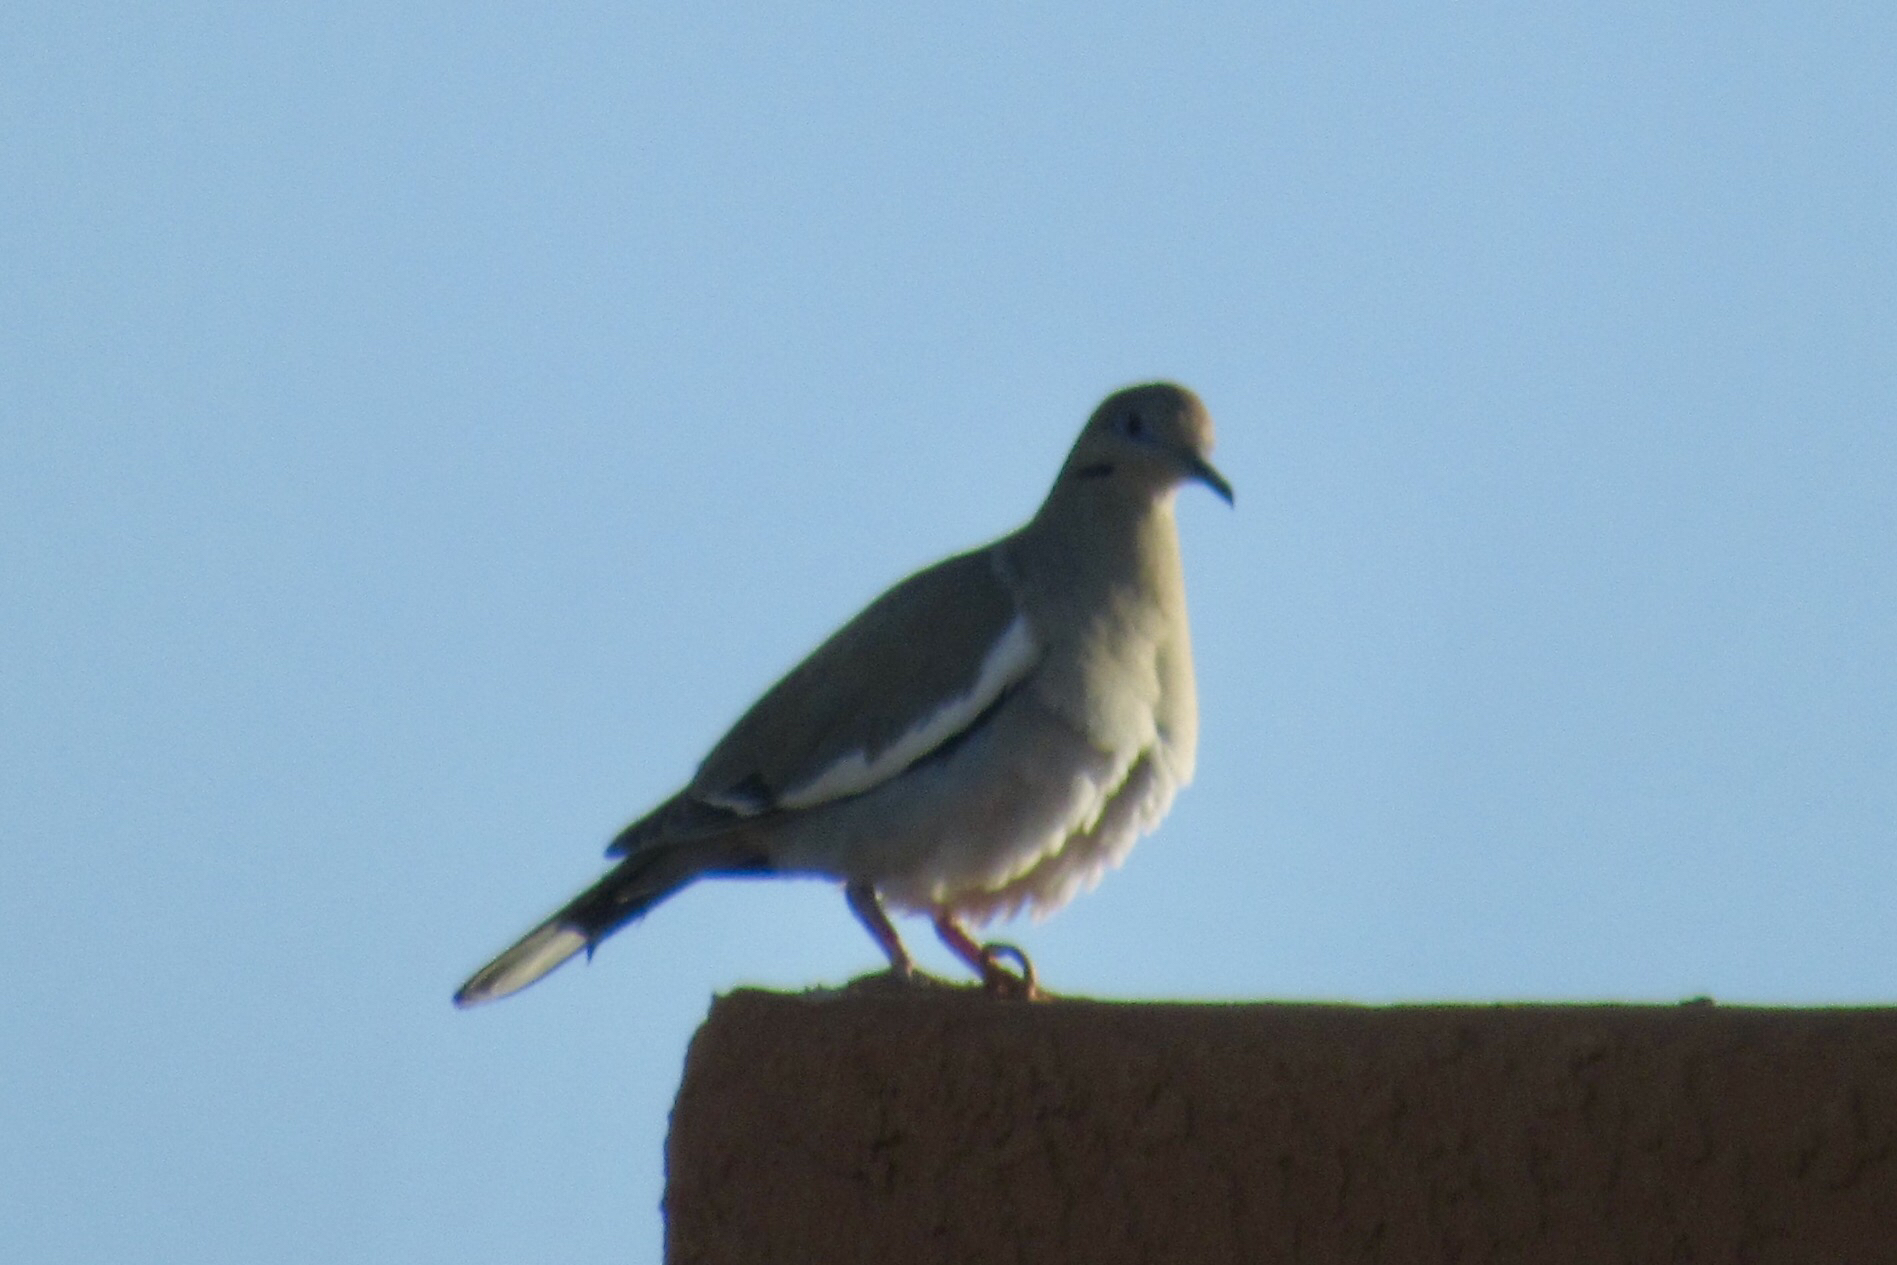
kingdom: Animalia
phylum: Chordata
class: Aves
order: Columbiformes
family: Columbidae
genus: Zenaida
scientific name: Zenaida asiatica
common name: White-winged dove
